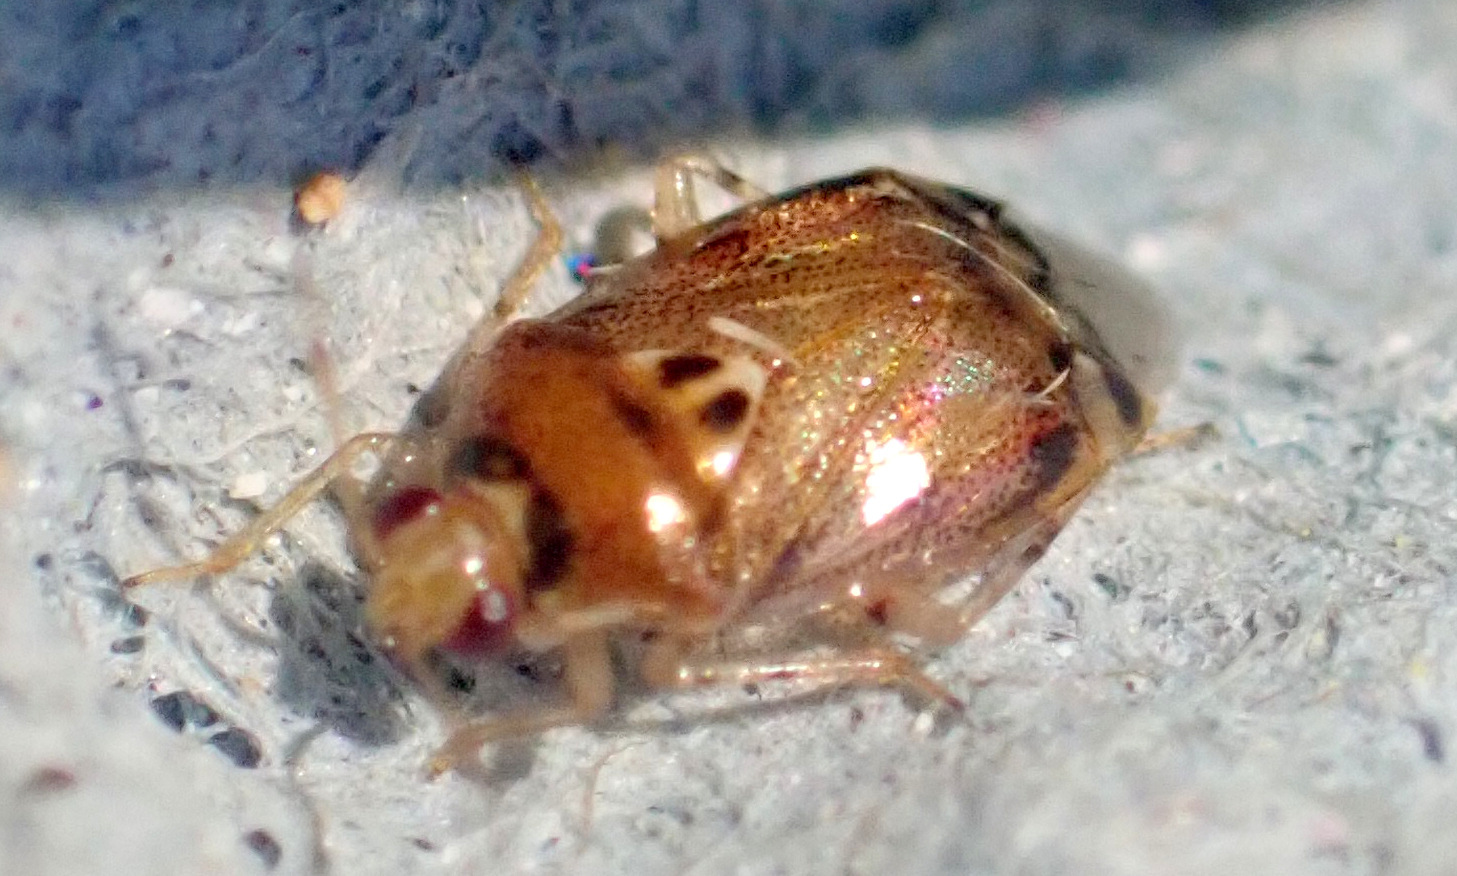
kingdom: Animalia
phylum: Arthropoda
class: Insecta
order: Hemiptera
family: Miridae
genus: Deraeocoris
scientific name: Deraeocoris lutescens
